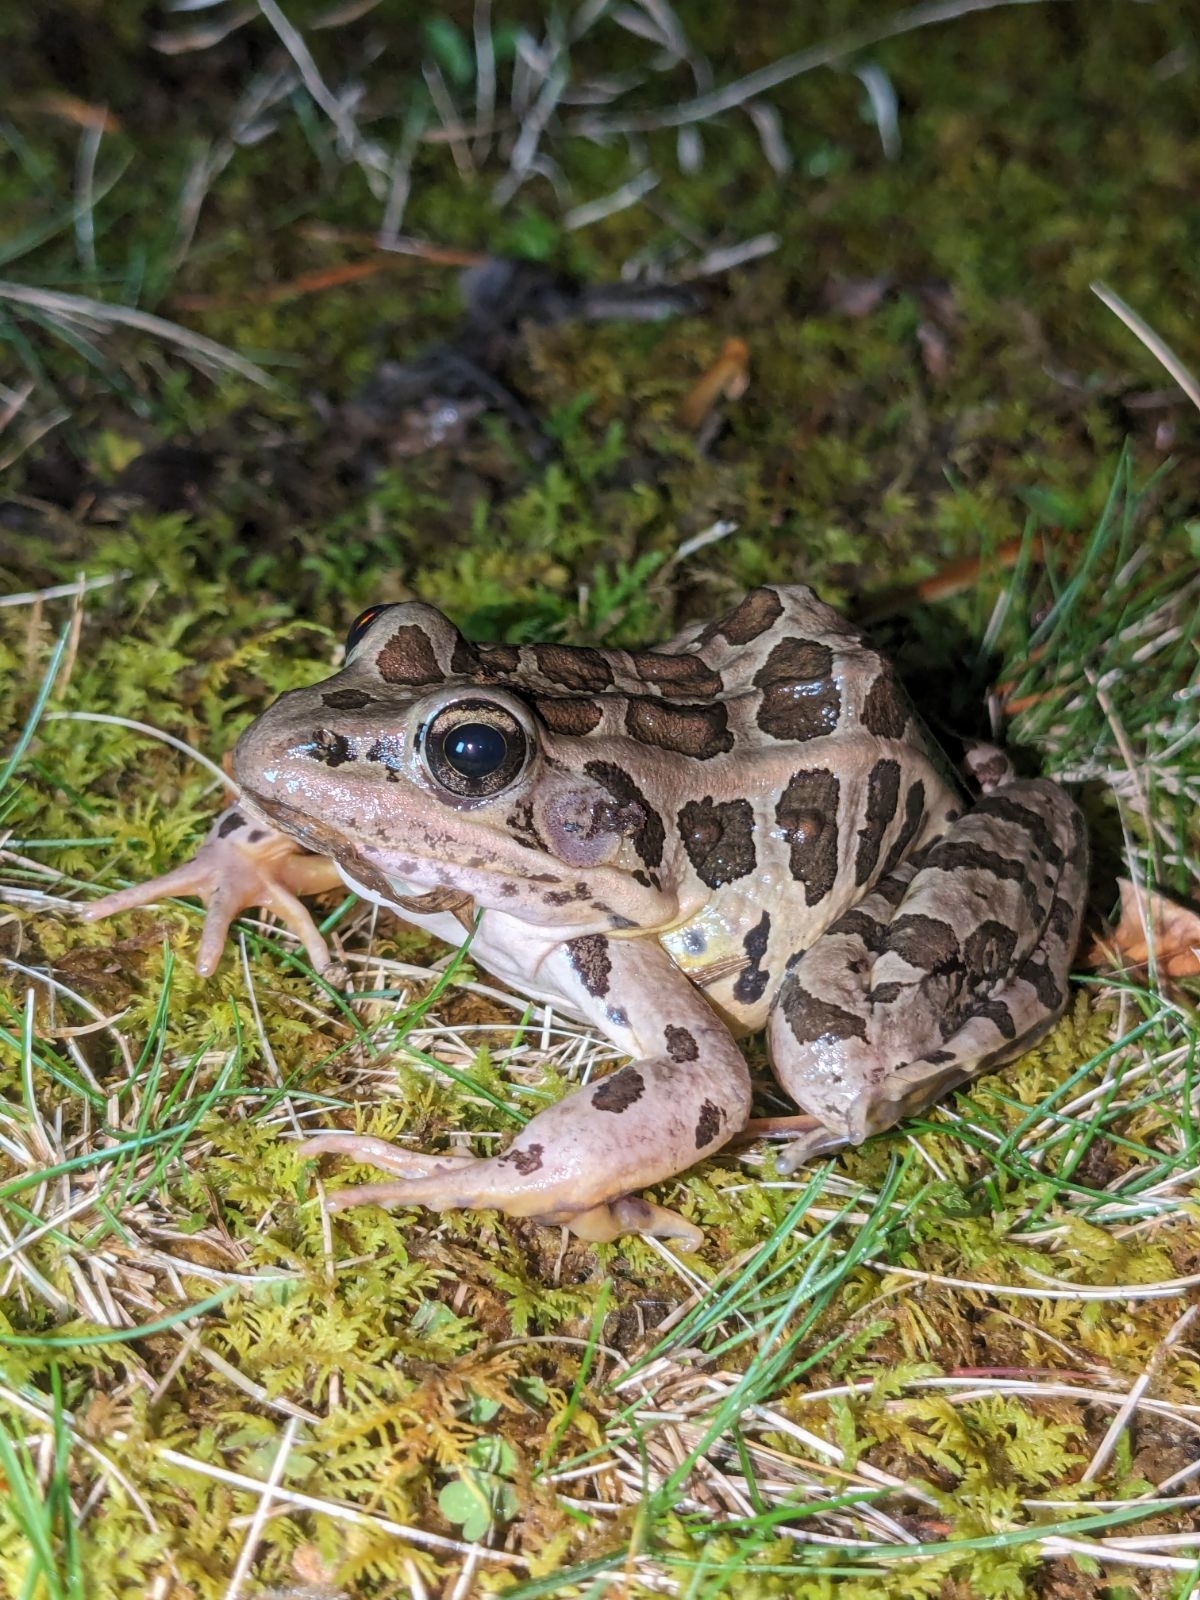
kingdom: Animalia
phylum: Chordata
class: Amphibia
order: Anura
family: Ranidae
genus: Lithobates
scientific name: Lithobates palustris
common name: Pickerel frog
